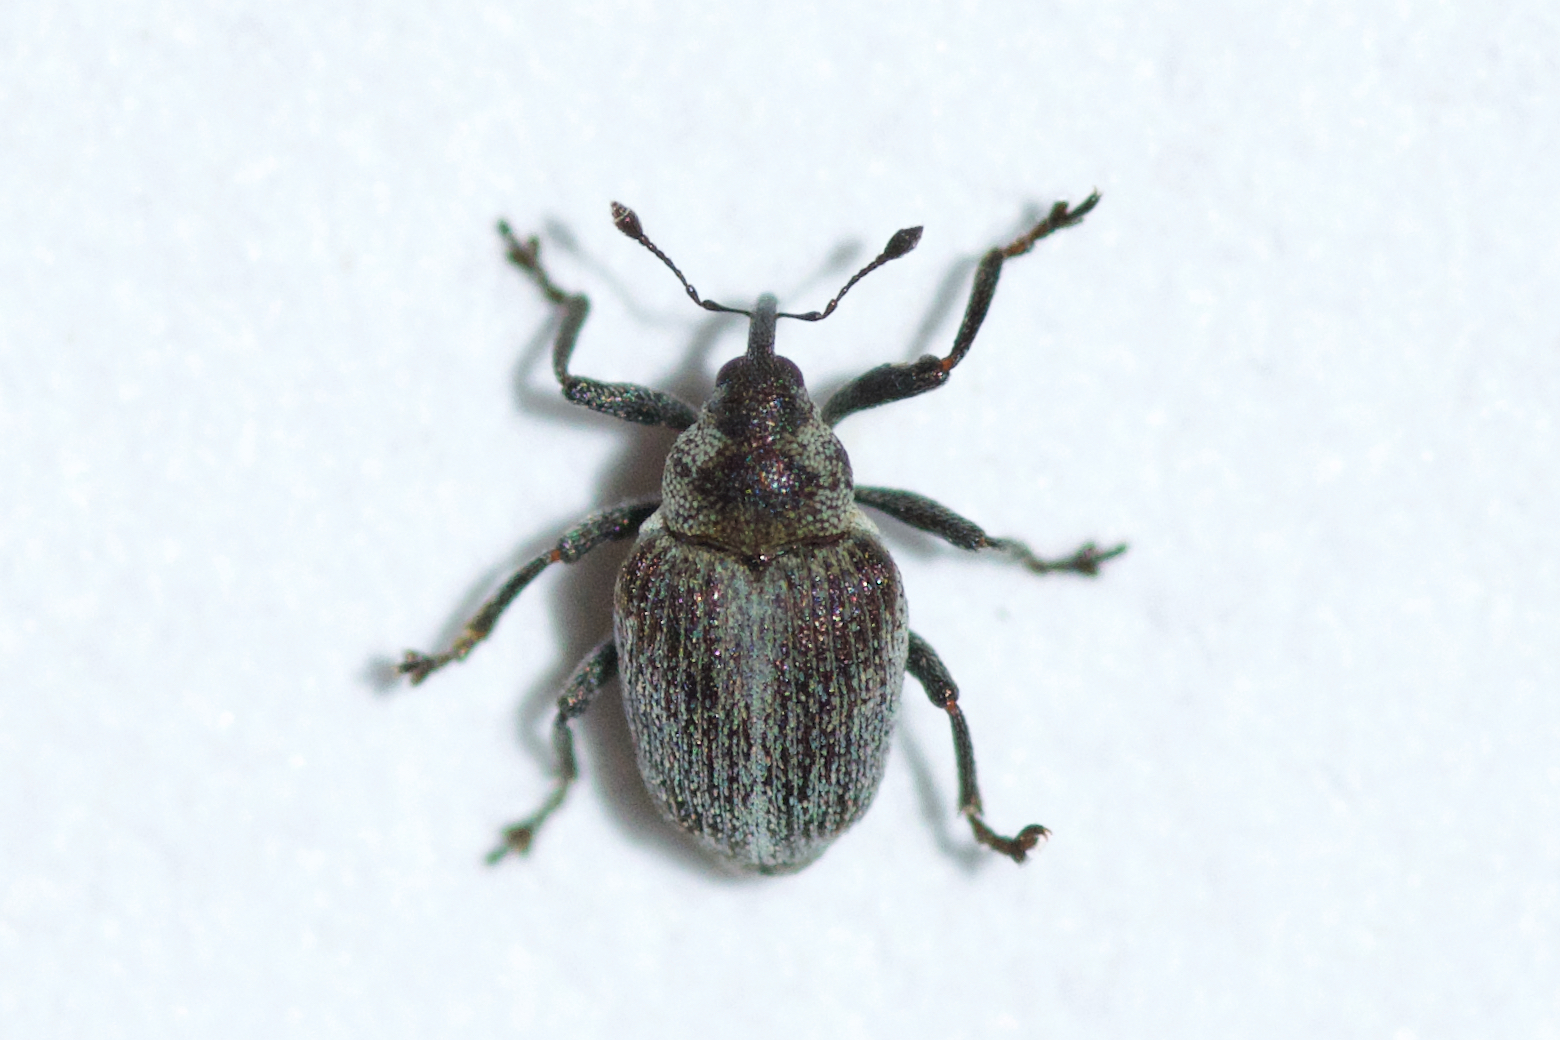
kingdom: Animalia
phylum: Arthropoda
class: Insecta
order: Coleoptera
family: Curculionidae
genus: Amalorrhynchus
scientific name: Amalorrhynchus melanarius
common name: Weevil
